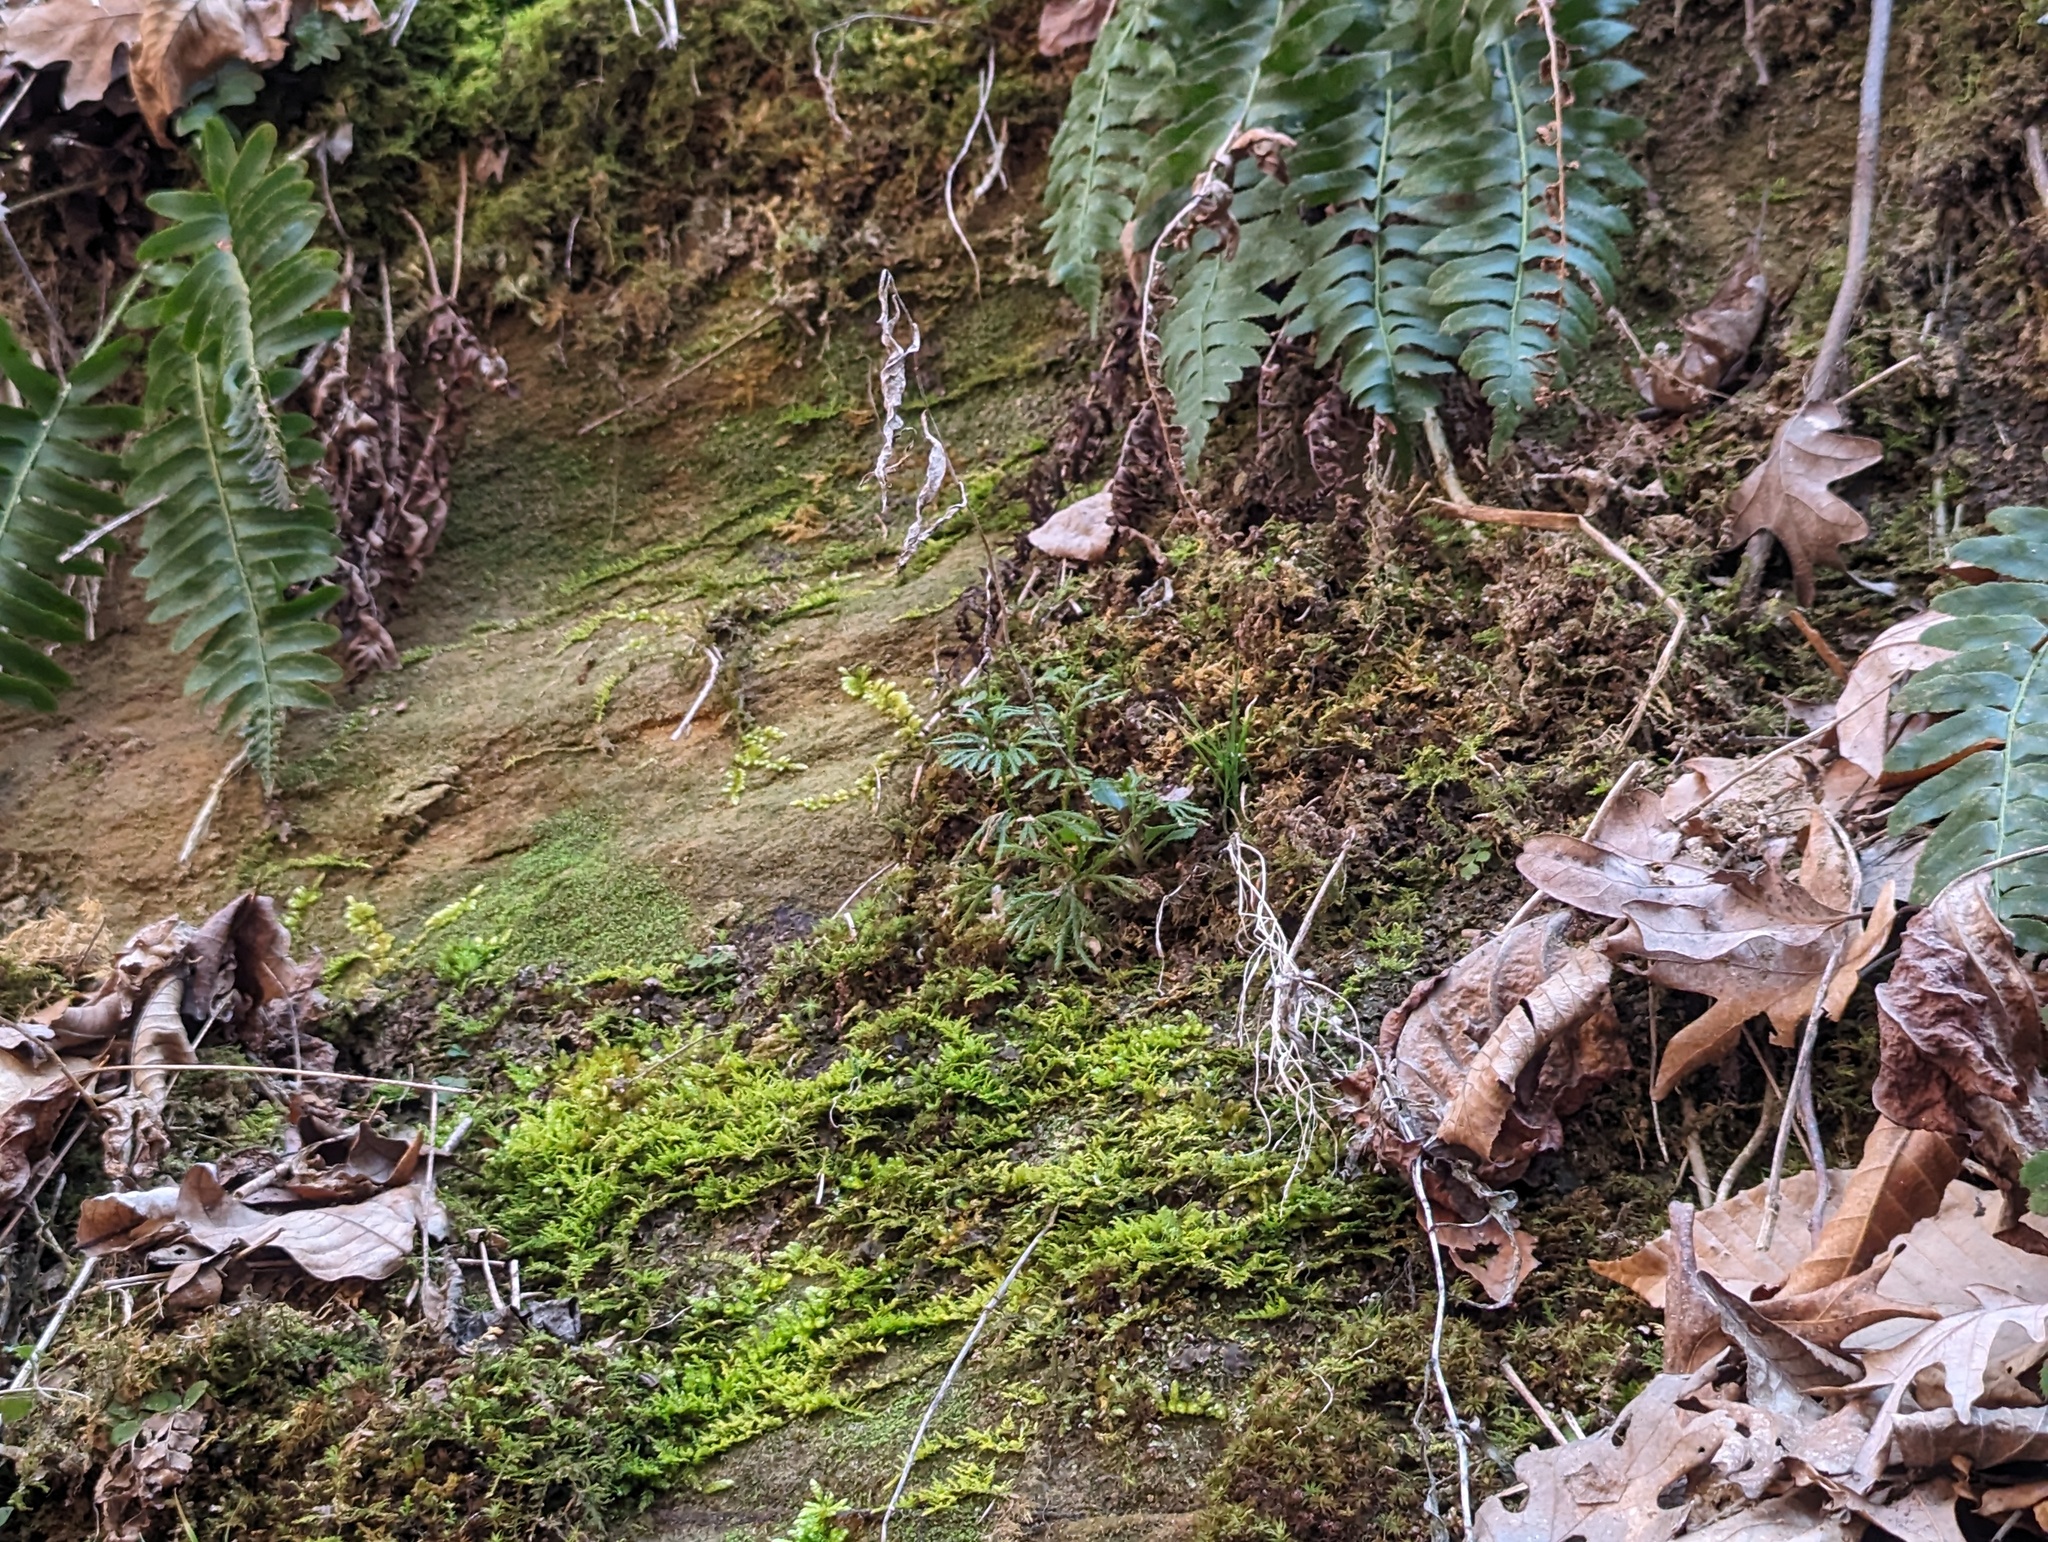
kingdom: Plantae
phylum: Tracheophyta
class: Lycopodiopsida
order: Lycopodiales
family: Lycopodiaceae
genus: Diphasiastrum
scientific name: Diphasiastrum digitatum
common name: Southern running-pine
